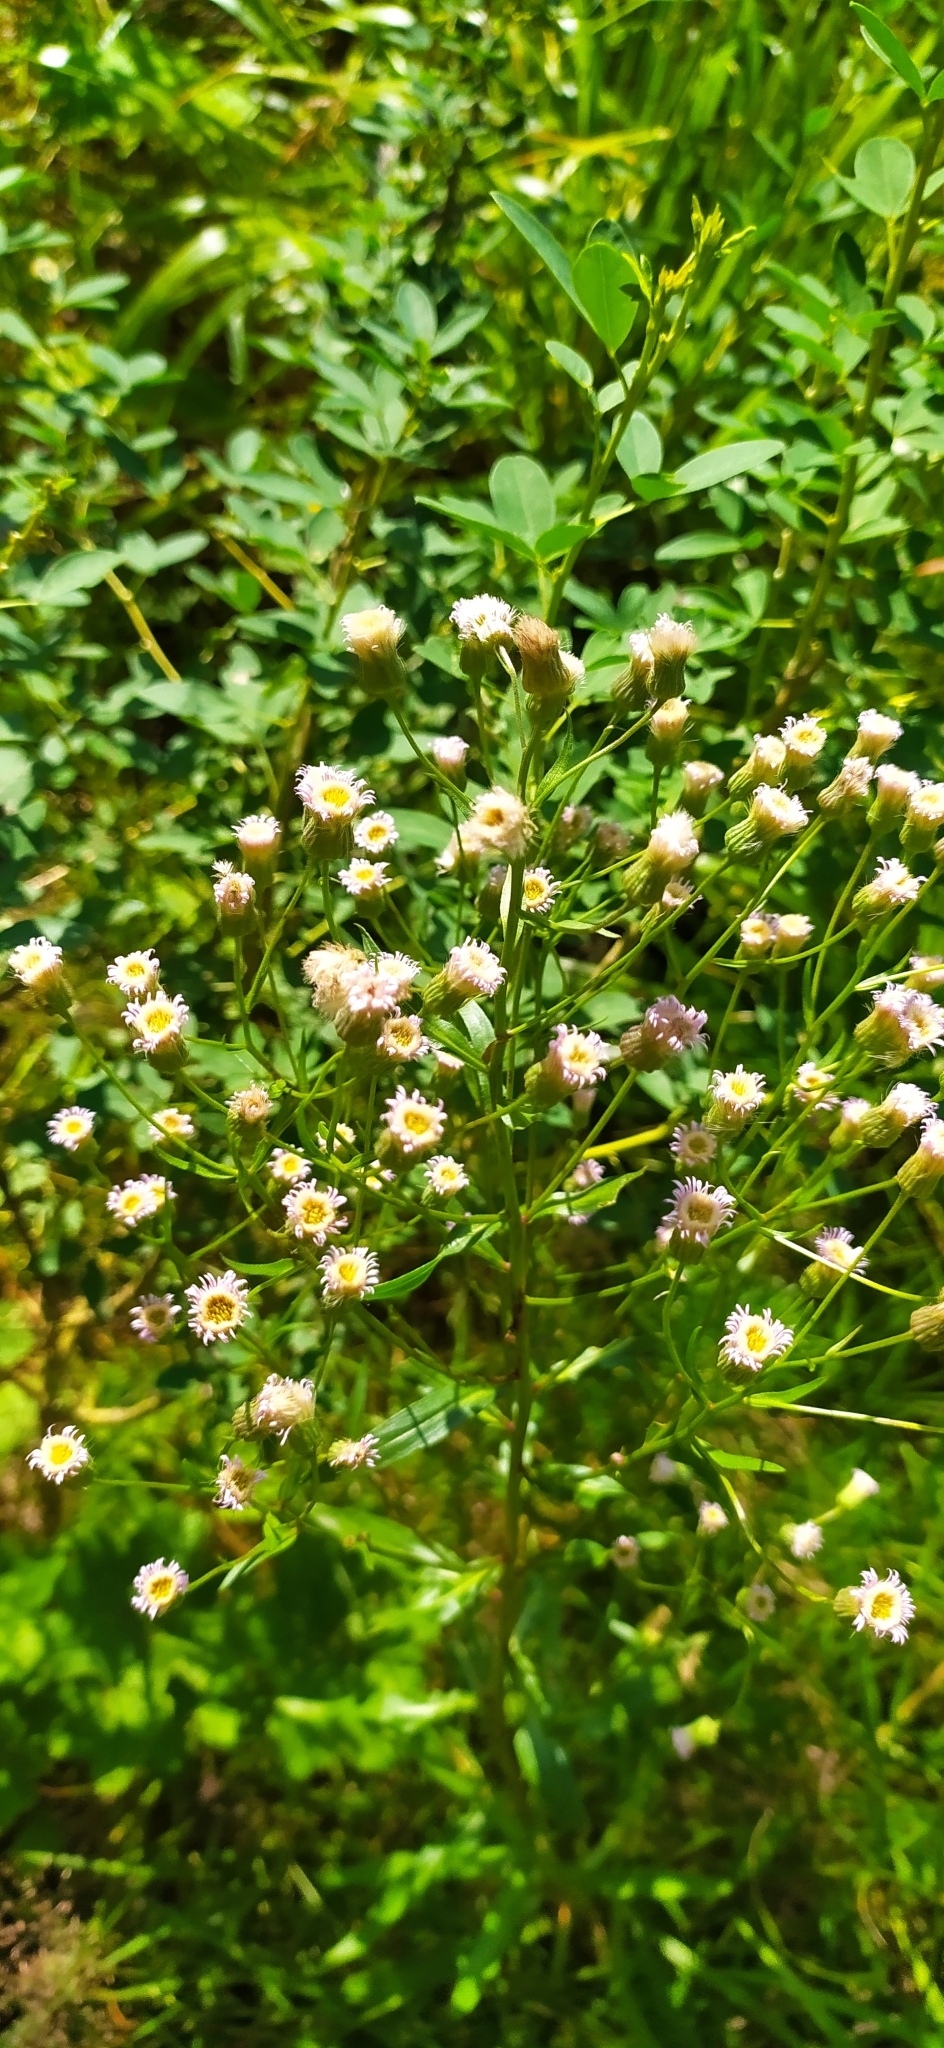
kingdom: Plantae
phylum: Tracheophyta
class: Magnoliopsida
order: Asterales
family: Asteraceae
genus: Erigeron
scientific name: Erigeron acris
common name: Blue fleabane
